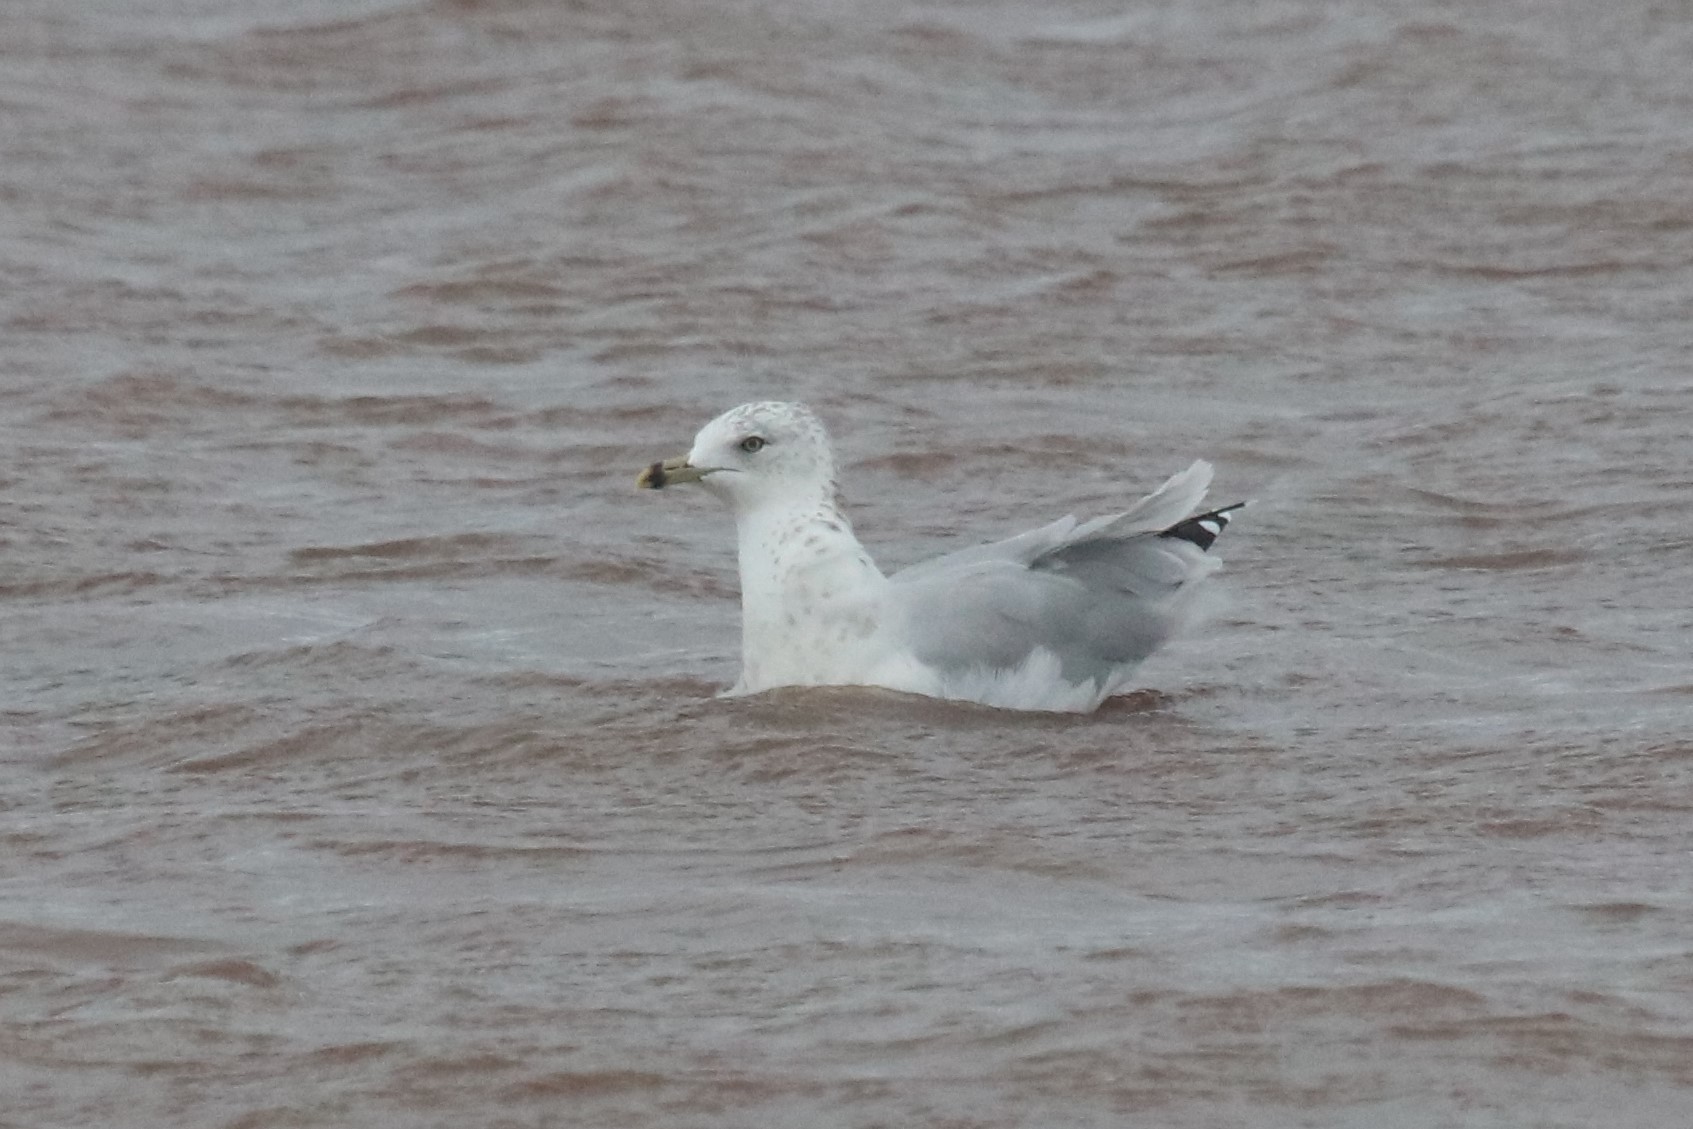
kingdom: Animalia
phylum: Chordata
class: Aves
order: Charadriiformes
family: Laridae
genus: Larus
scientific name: Larus delawarensis
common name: Ring-billed gull
